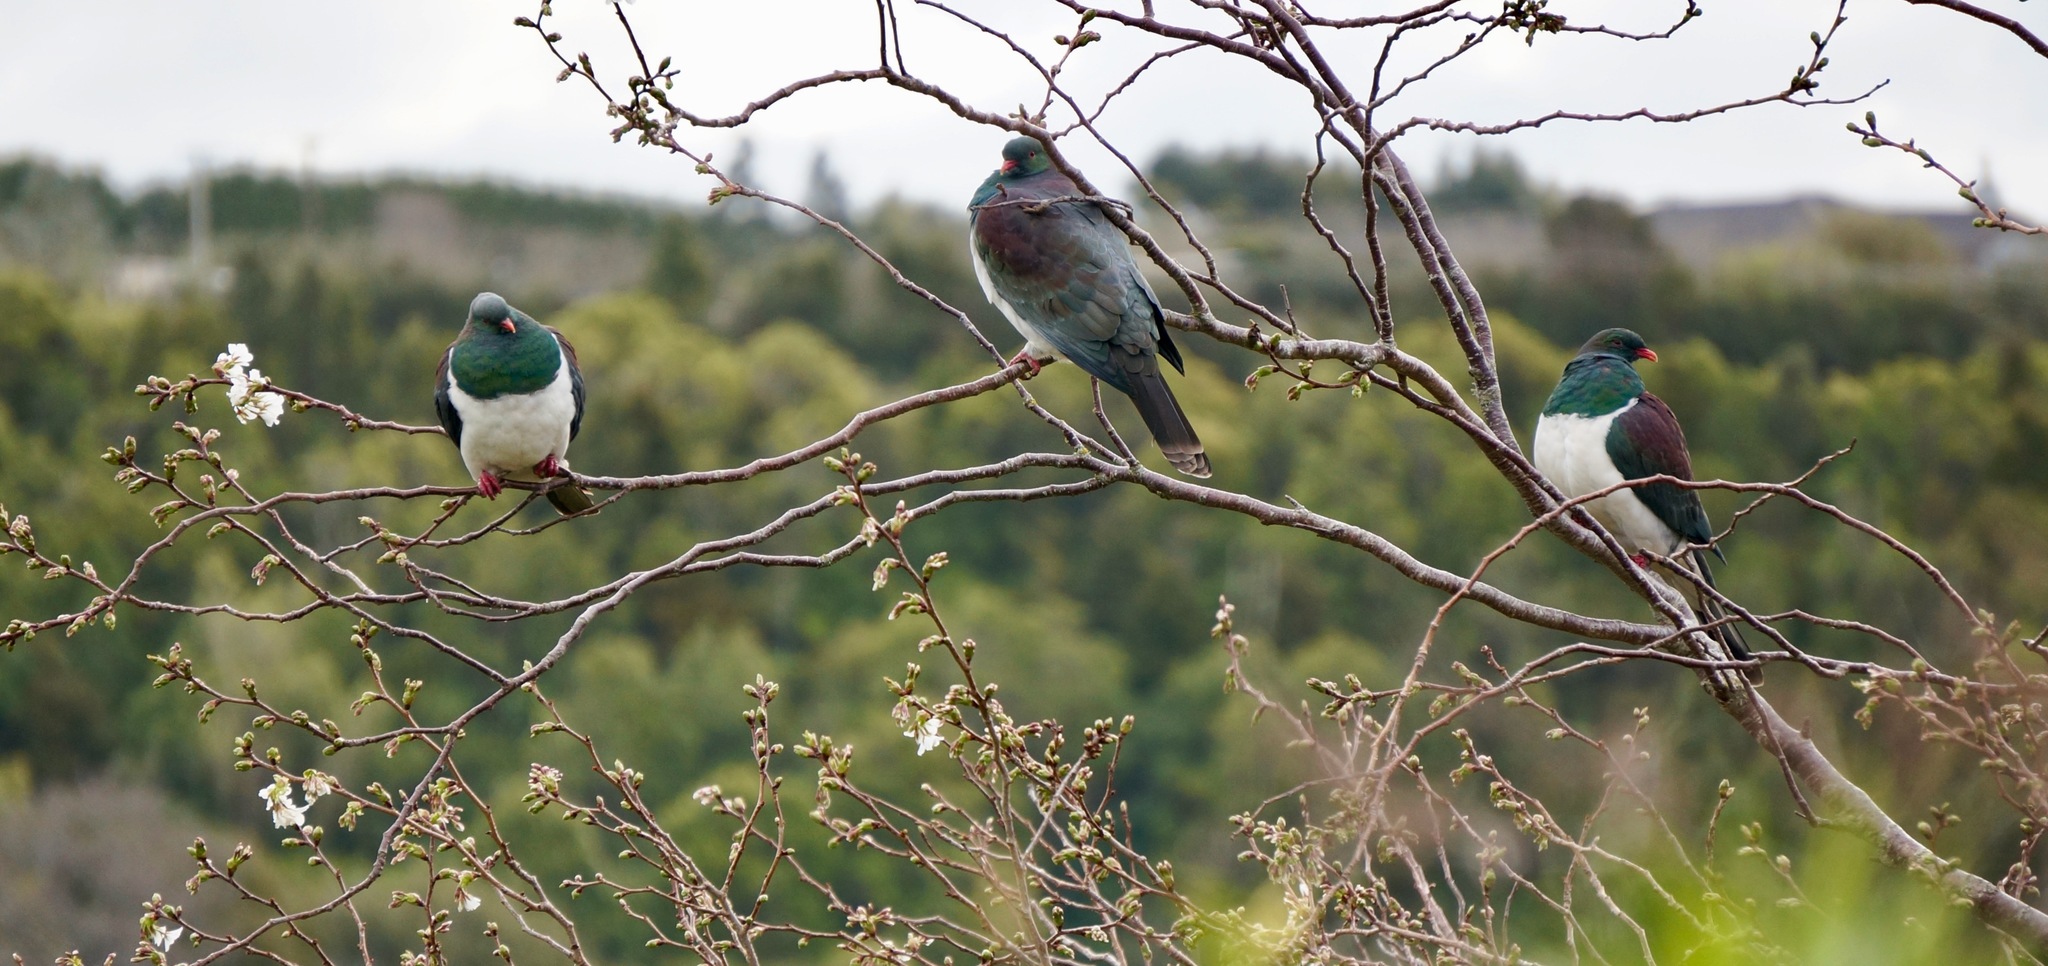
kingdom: Animalia
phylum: Chordata
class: Aves
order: Columbiformes
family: Columbidae
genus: Hemiphaga
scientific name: Hemiphaga novaeseelandiae
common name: New zealand pigeon
